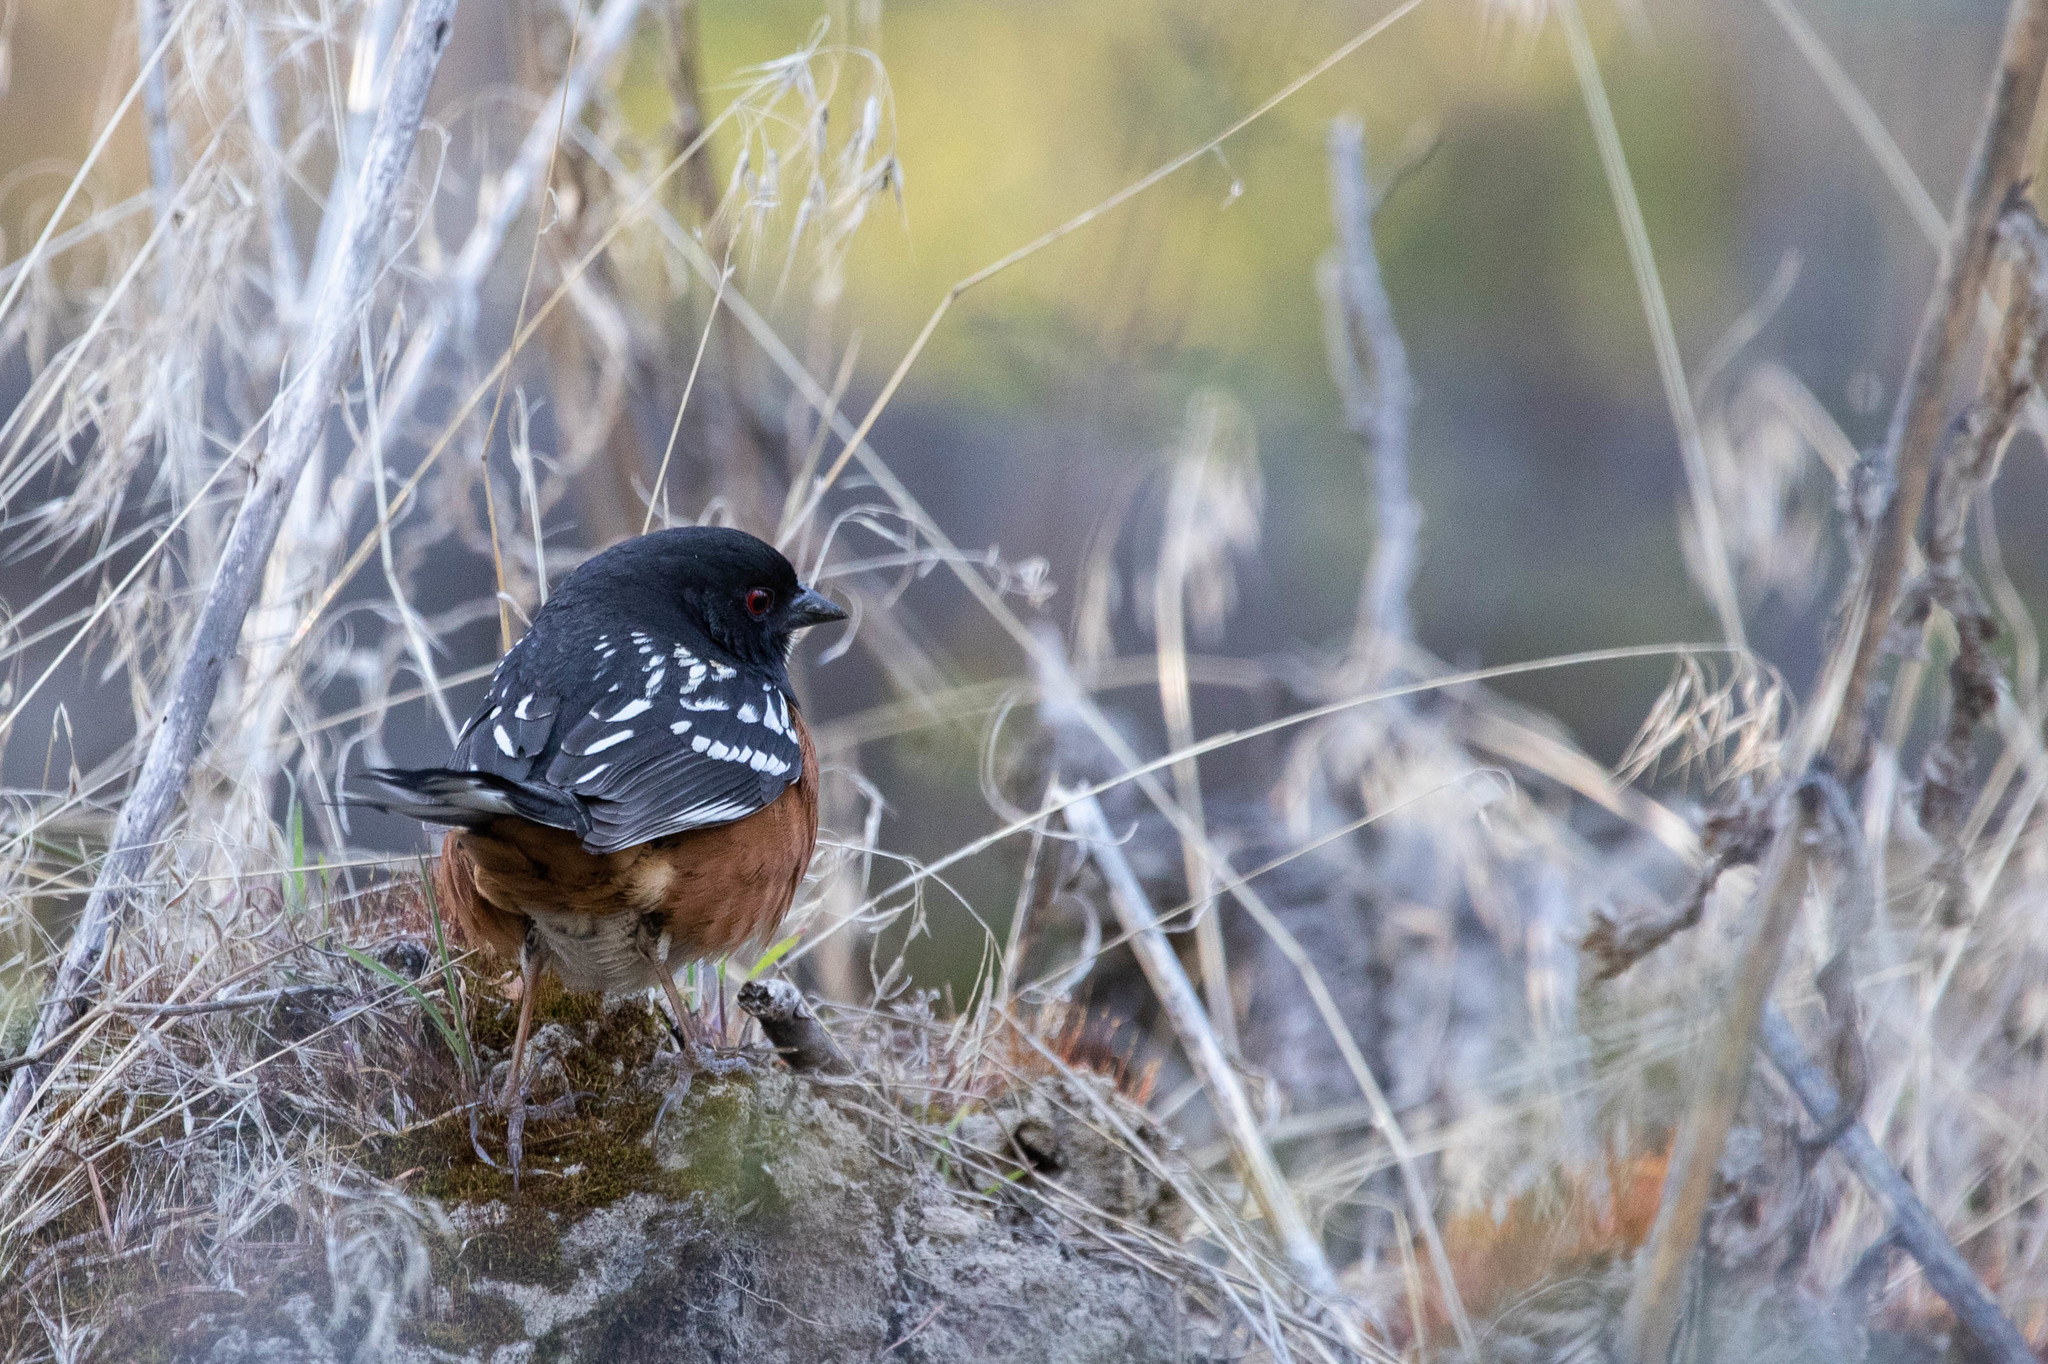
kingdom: Animalia
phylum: Chordata
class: Aves
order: Passeriformes
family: Passerellidae
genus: Pipilo
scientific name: Pipilo maculatus
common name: Spotted towhee
